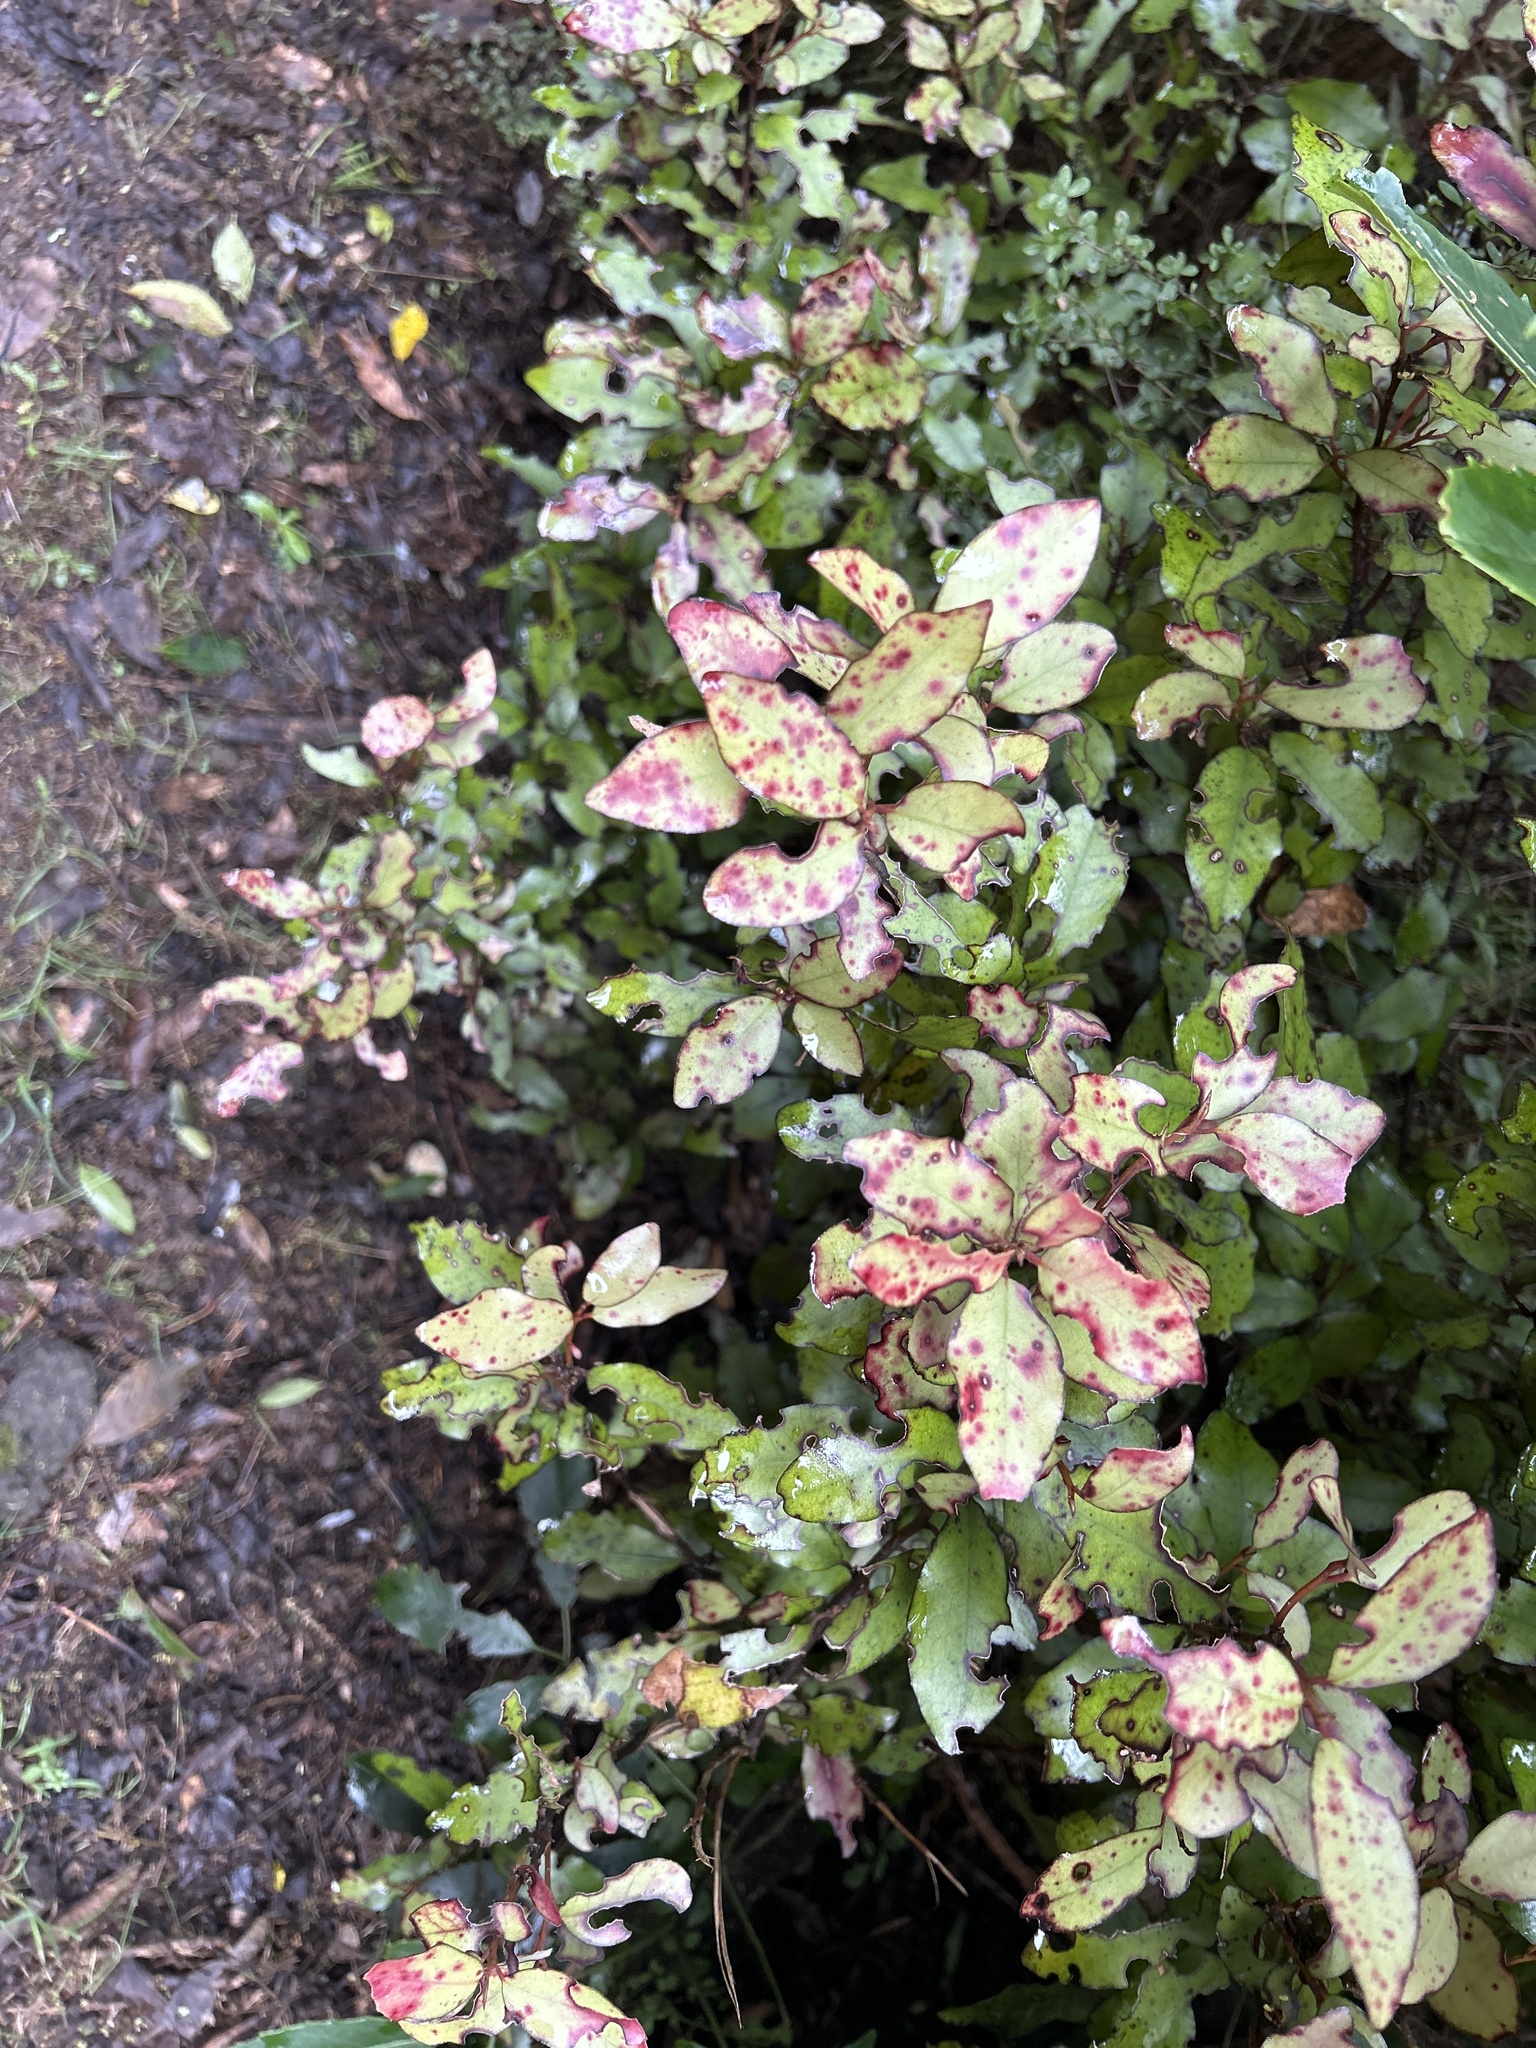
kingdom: Plantae
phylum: Tracheophyta
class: Magnoliopsida
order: Canellales
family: Winteraceae
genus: Pseudowintera
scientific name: Pseudowintera colorata
